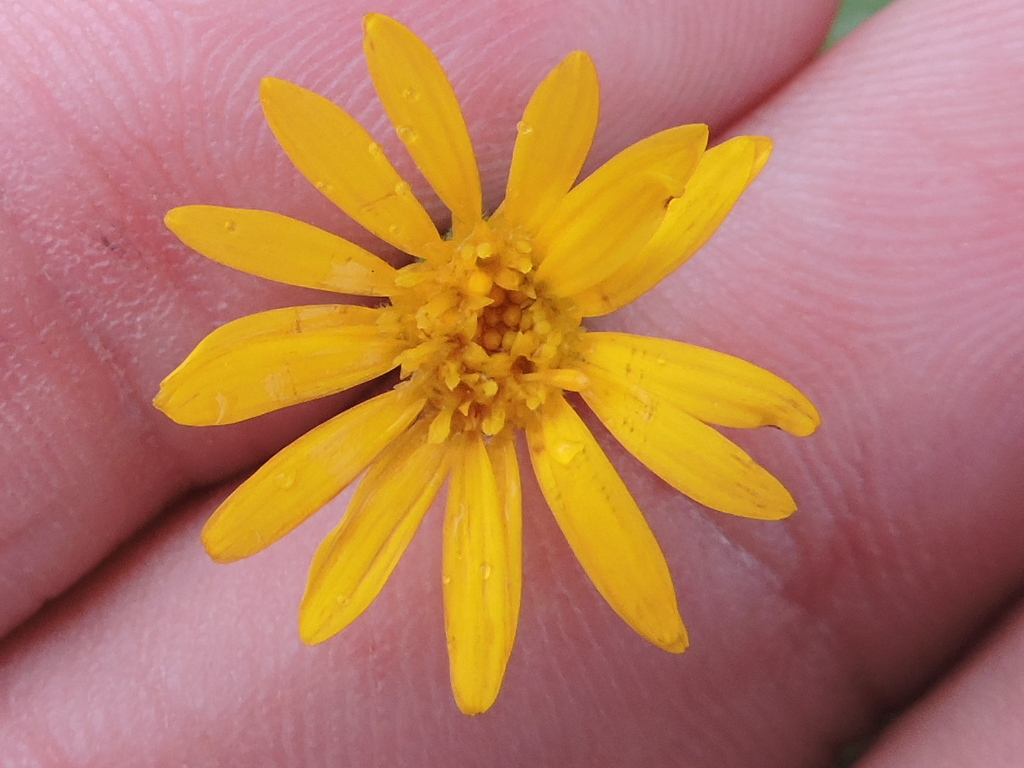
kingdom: Plantae
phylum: Tracheophyta
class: Magnoliopsida
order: Asterales
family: Asteraceae
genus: Heterotheca
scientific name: Heterotheca subaxillaris
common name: Camphorweed
